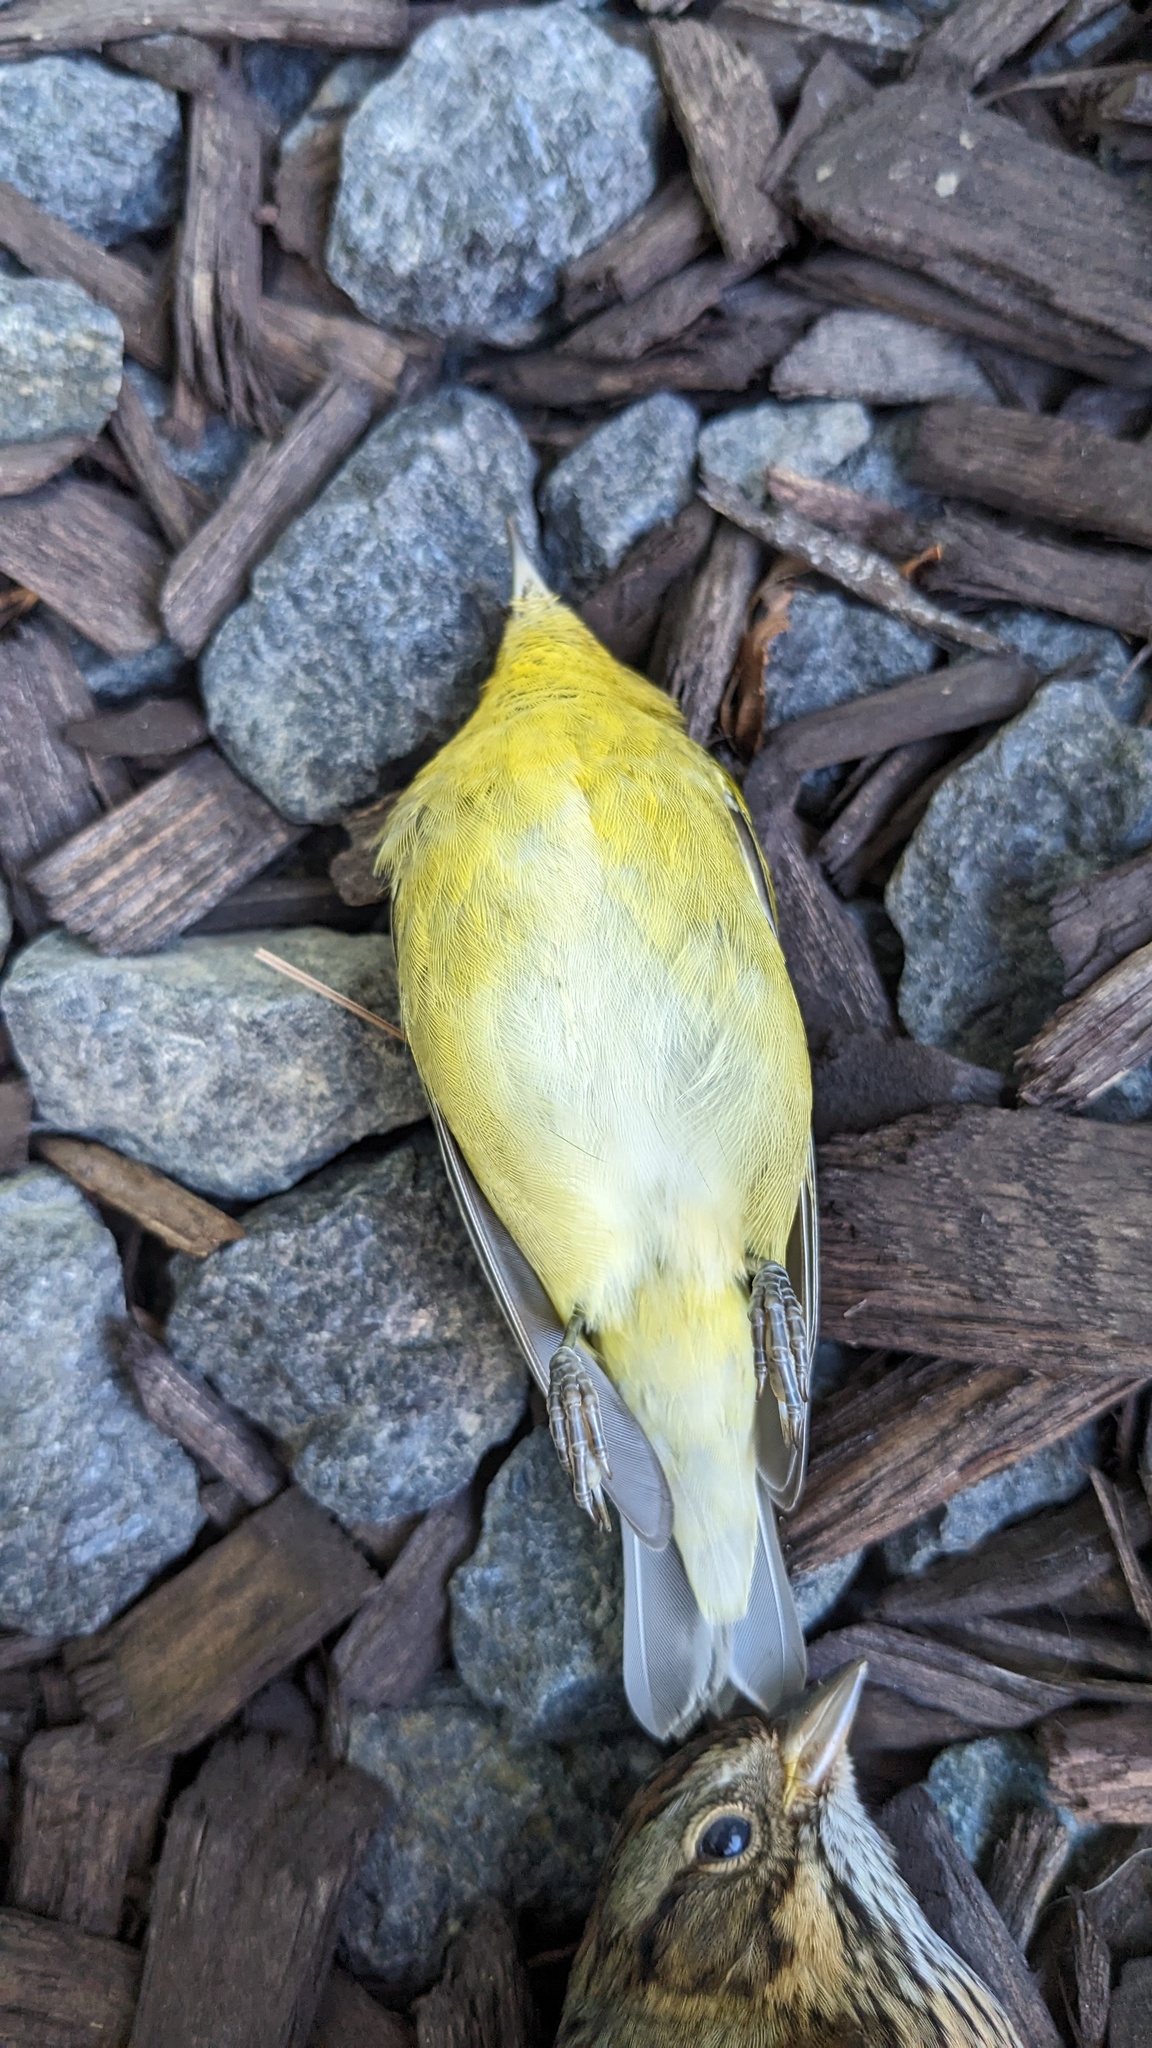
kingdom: Animalia
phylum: Chordata
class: Aves
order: Passeriformes
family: Parulidae
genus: Leiothlypis
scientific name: Leiothlypis peregrina
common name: Tennessee warbler
